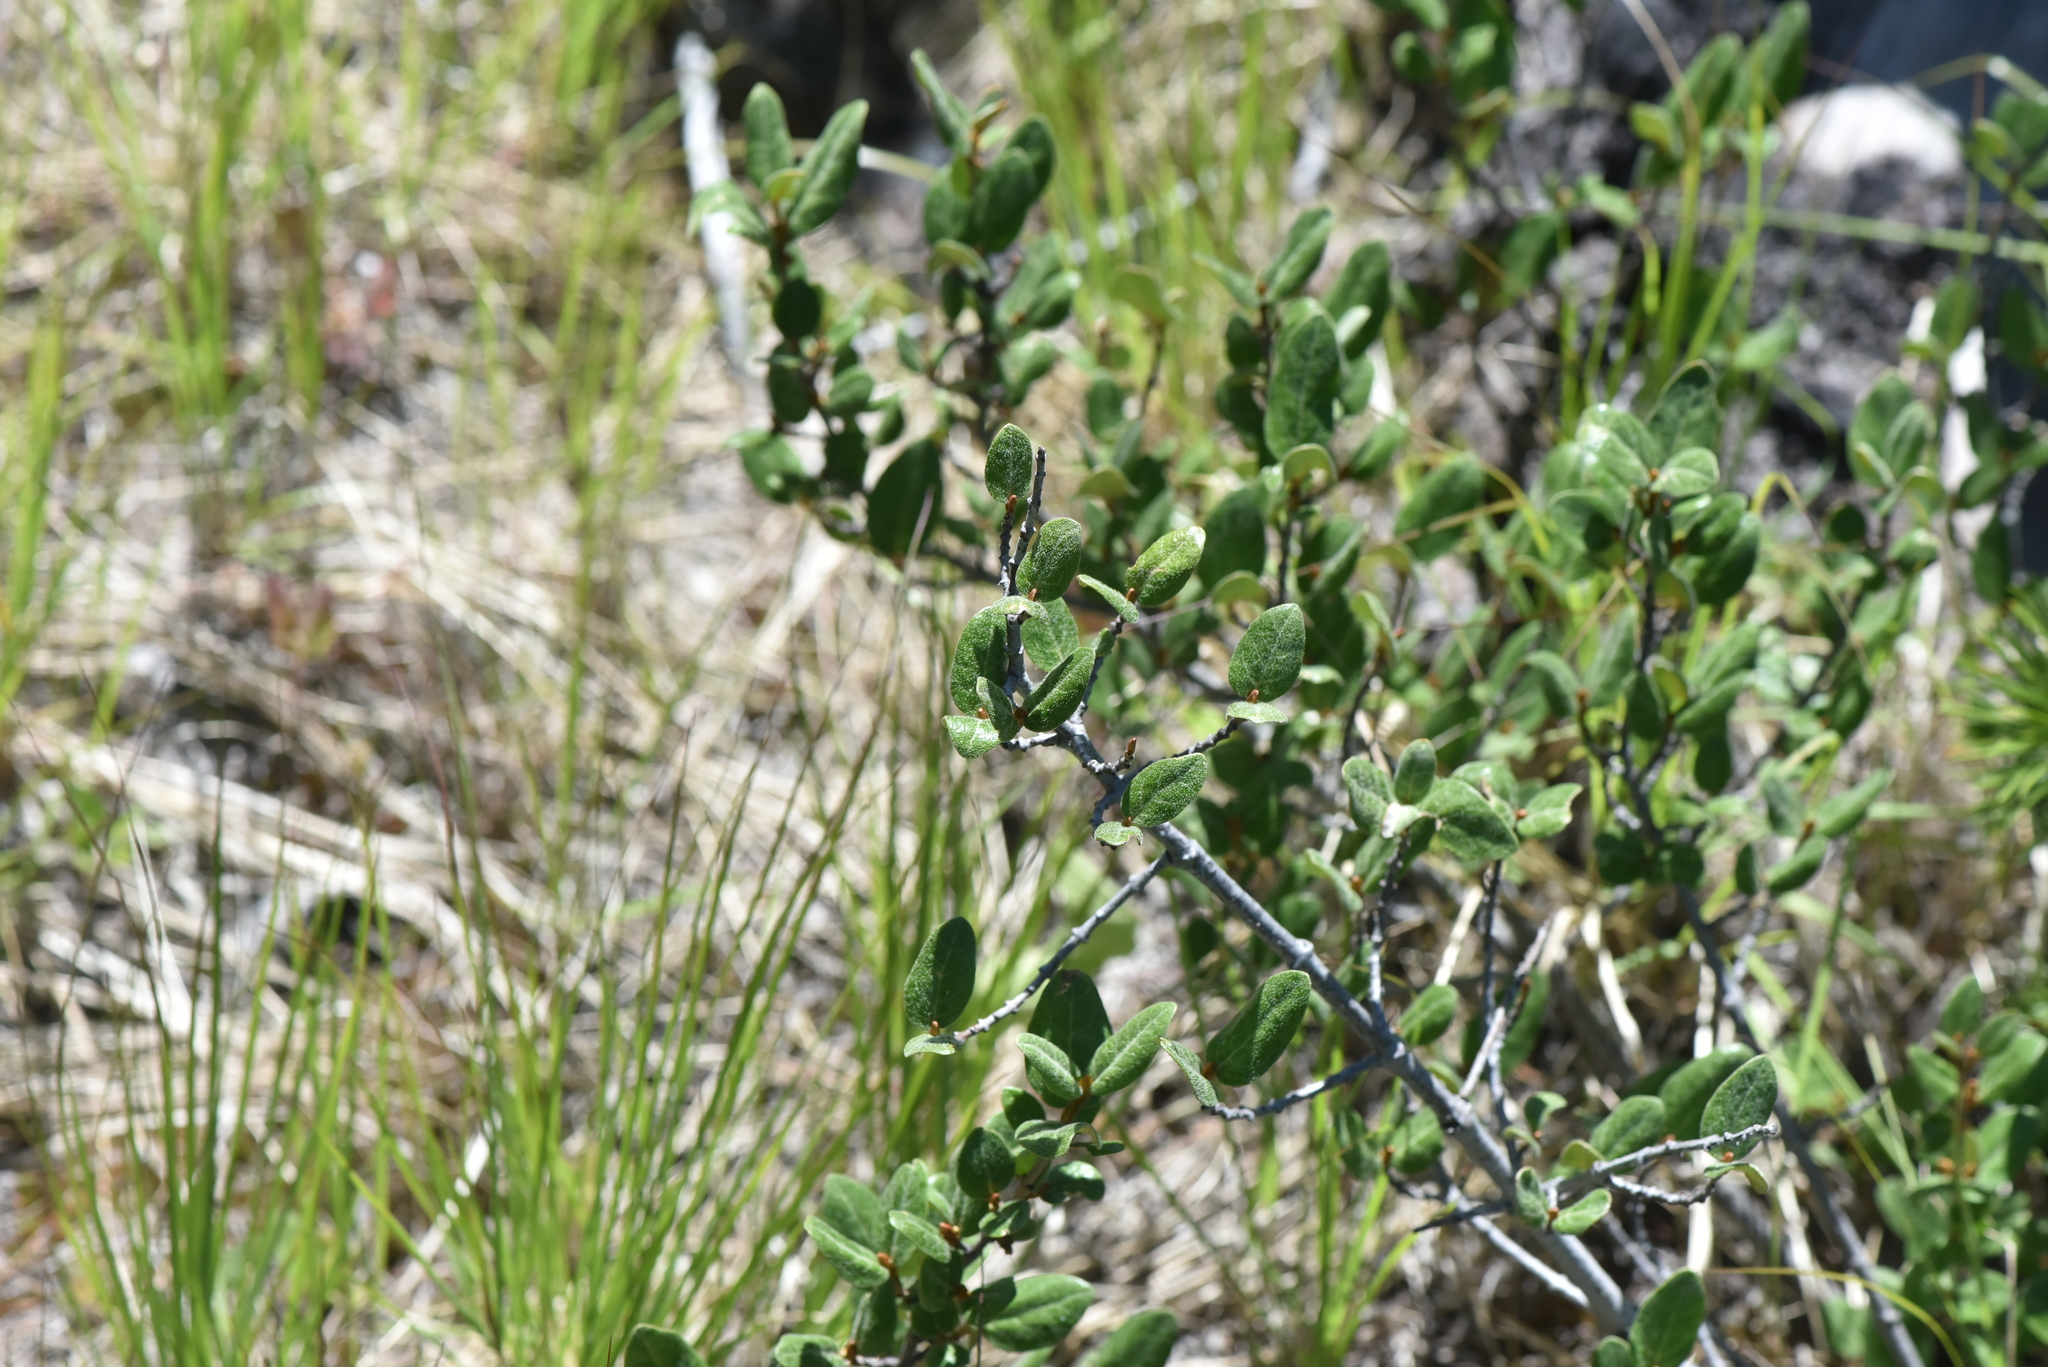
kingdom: Plantae
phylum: Tracheophyta
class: Magnoliopsida
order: Rosales
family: Elaeagnaceae
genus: Shepherdia
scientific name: Shepherdia canadensis
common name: Soapberry
